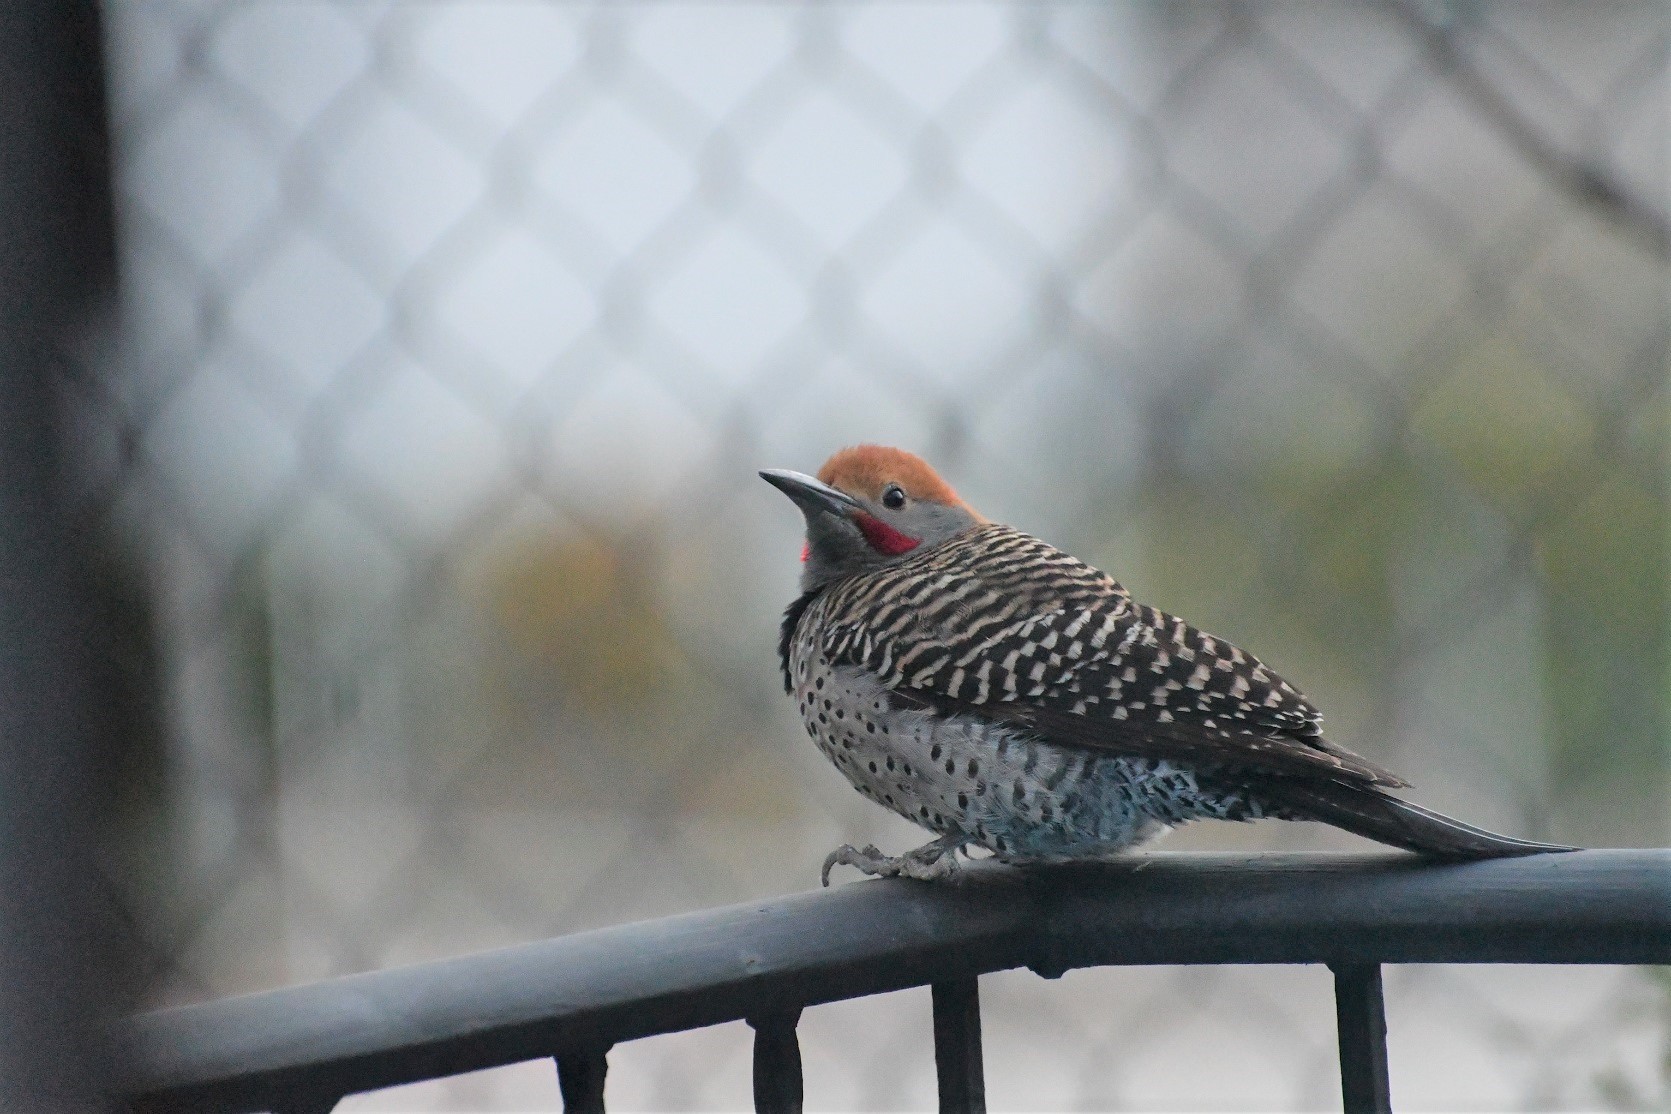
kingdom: Animalia
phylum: Chordata
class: Aves
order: Piciformes
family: Picidae
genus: Colaptes
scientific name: Colaptes auratus
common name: Northern flicker
